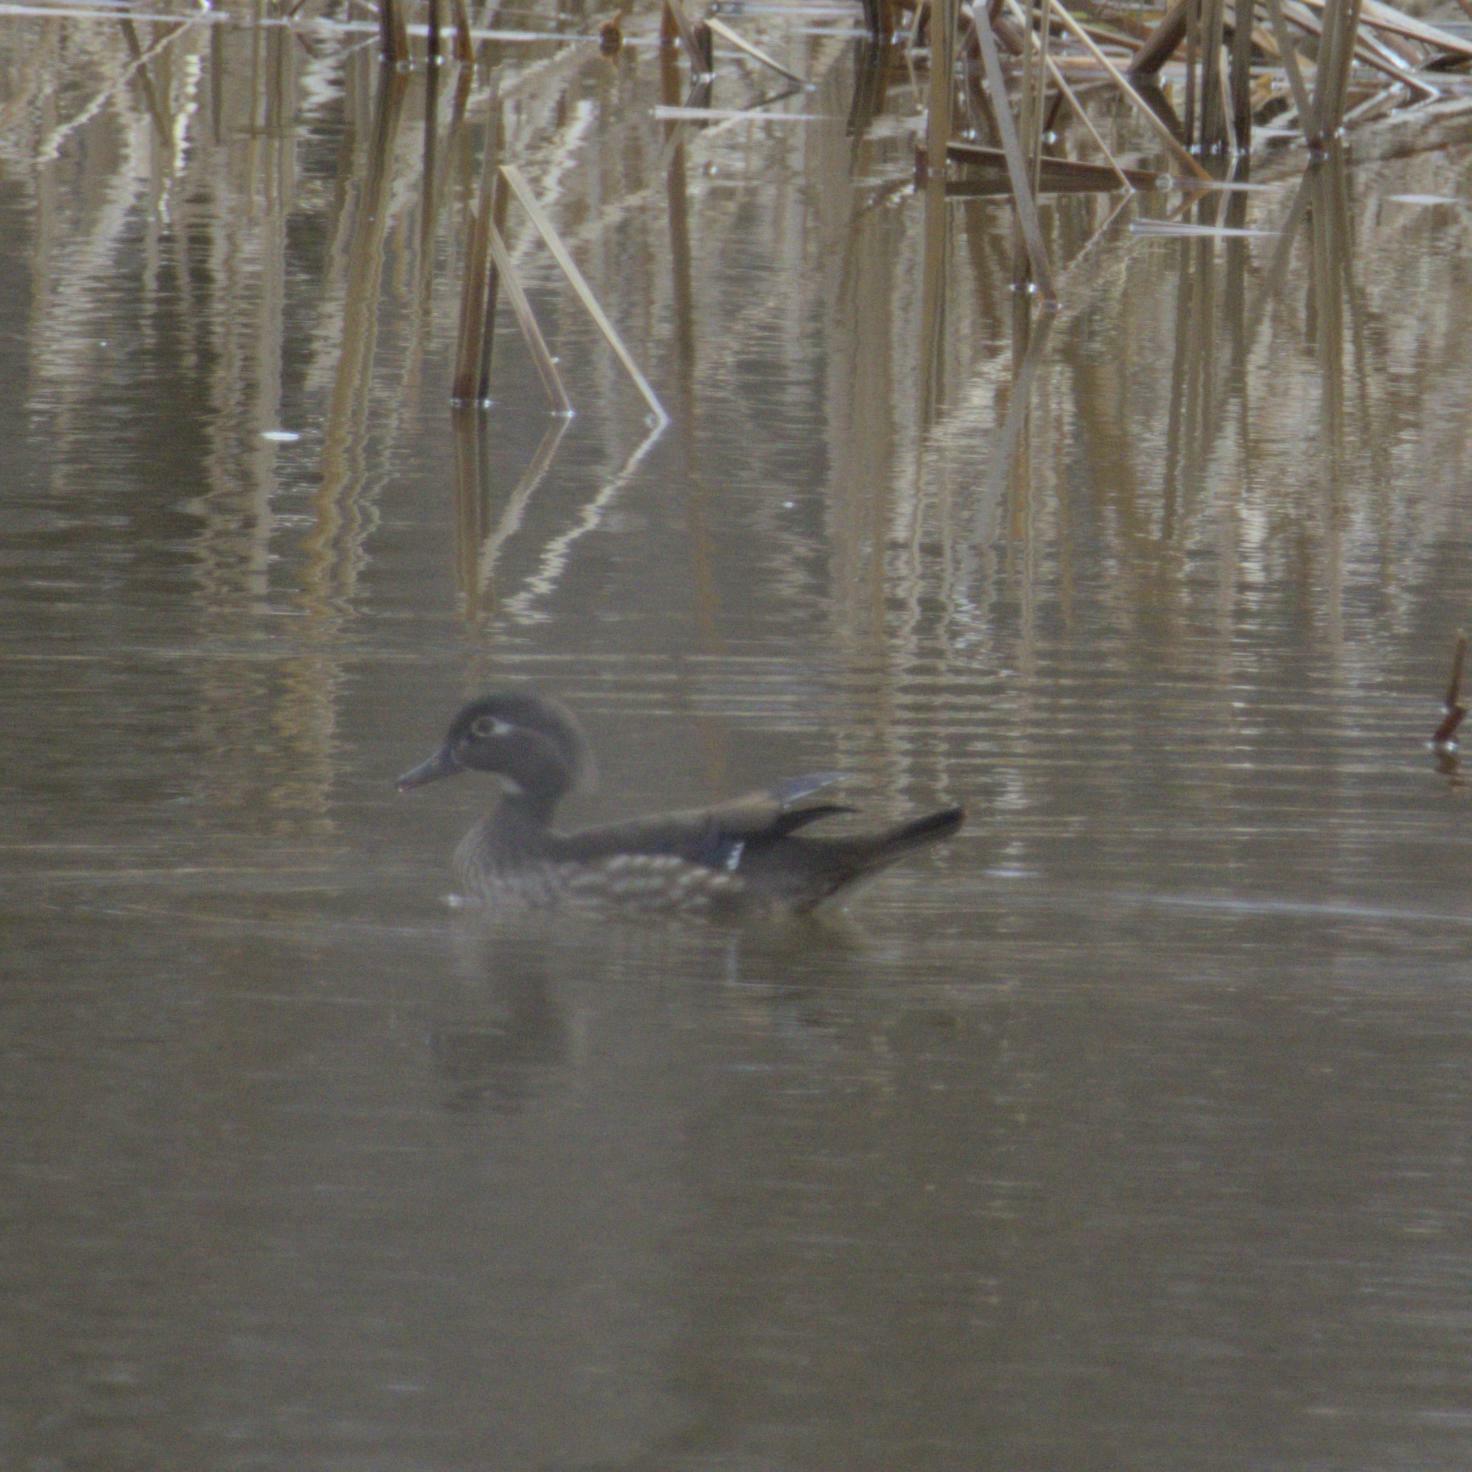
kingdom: Animalia
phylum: Chordata
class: Aves
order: Anseriformes
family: Anatidae
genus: Aix
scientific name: Aix sponsa
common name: Wood duck
